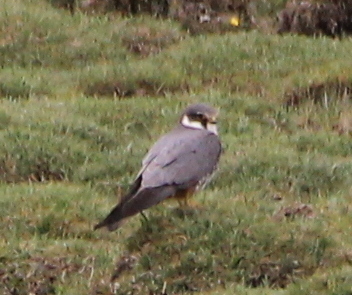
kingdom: Animalia
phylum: Chordata
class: Aves
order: Falconiformes
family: Falconidae
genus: Falco
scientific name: Falco subbuteo
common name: Eurasian hobby
